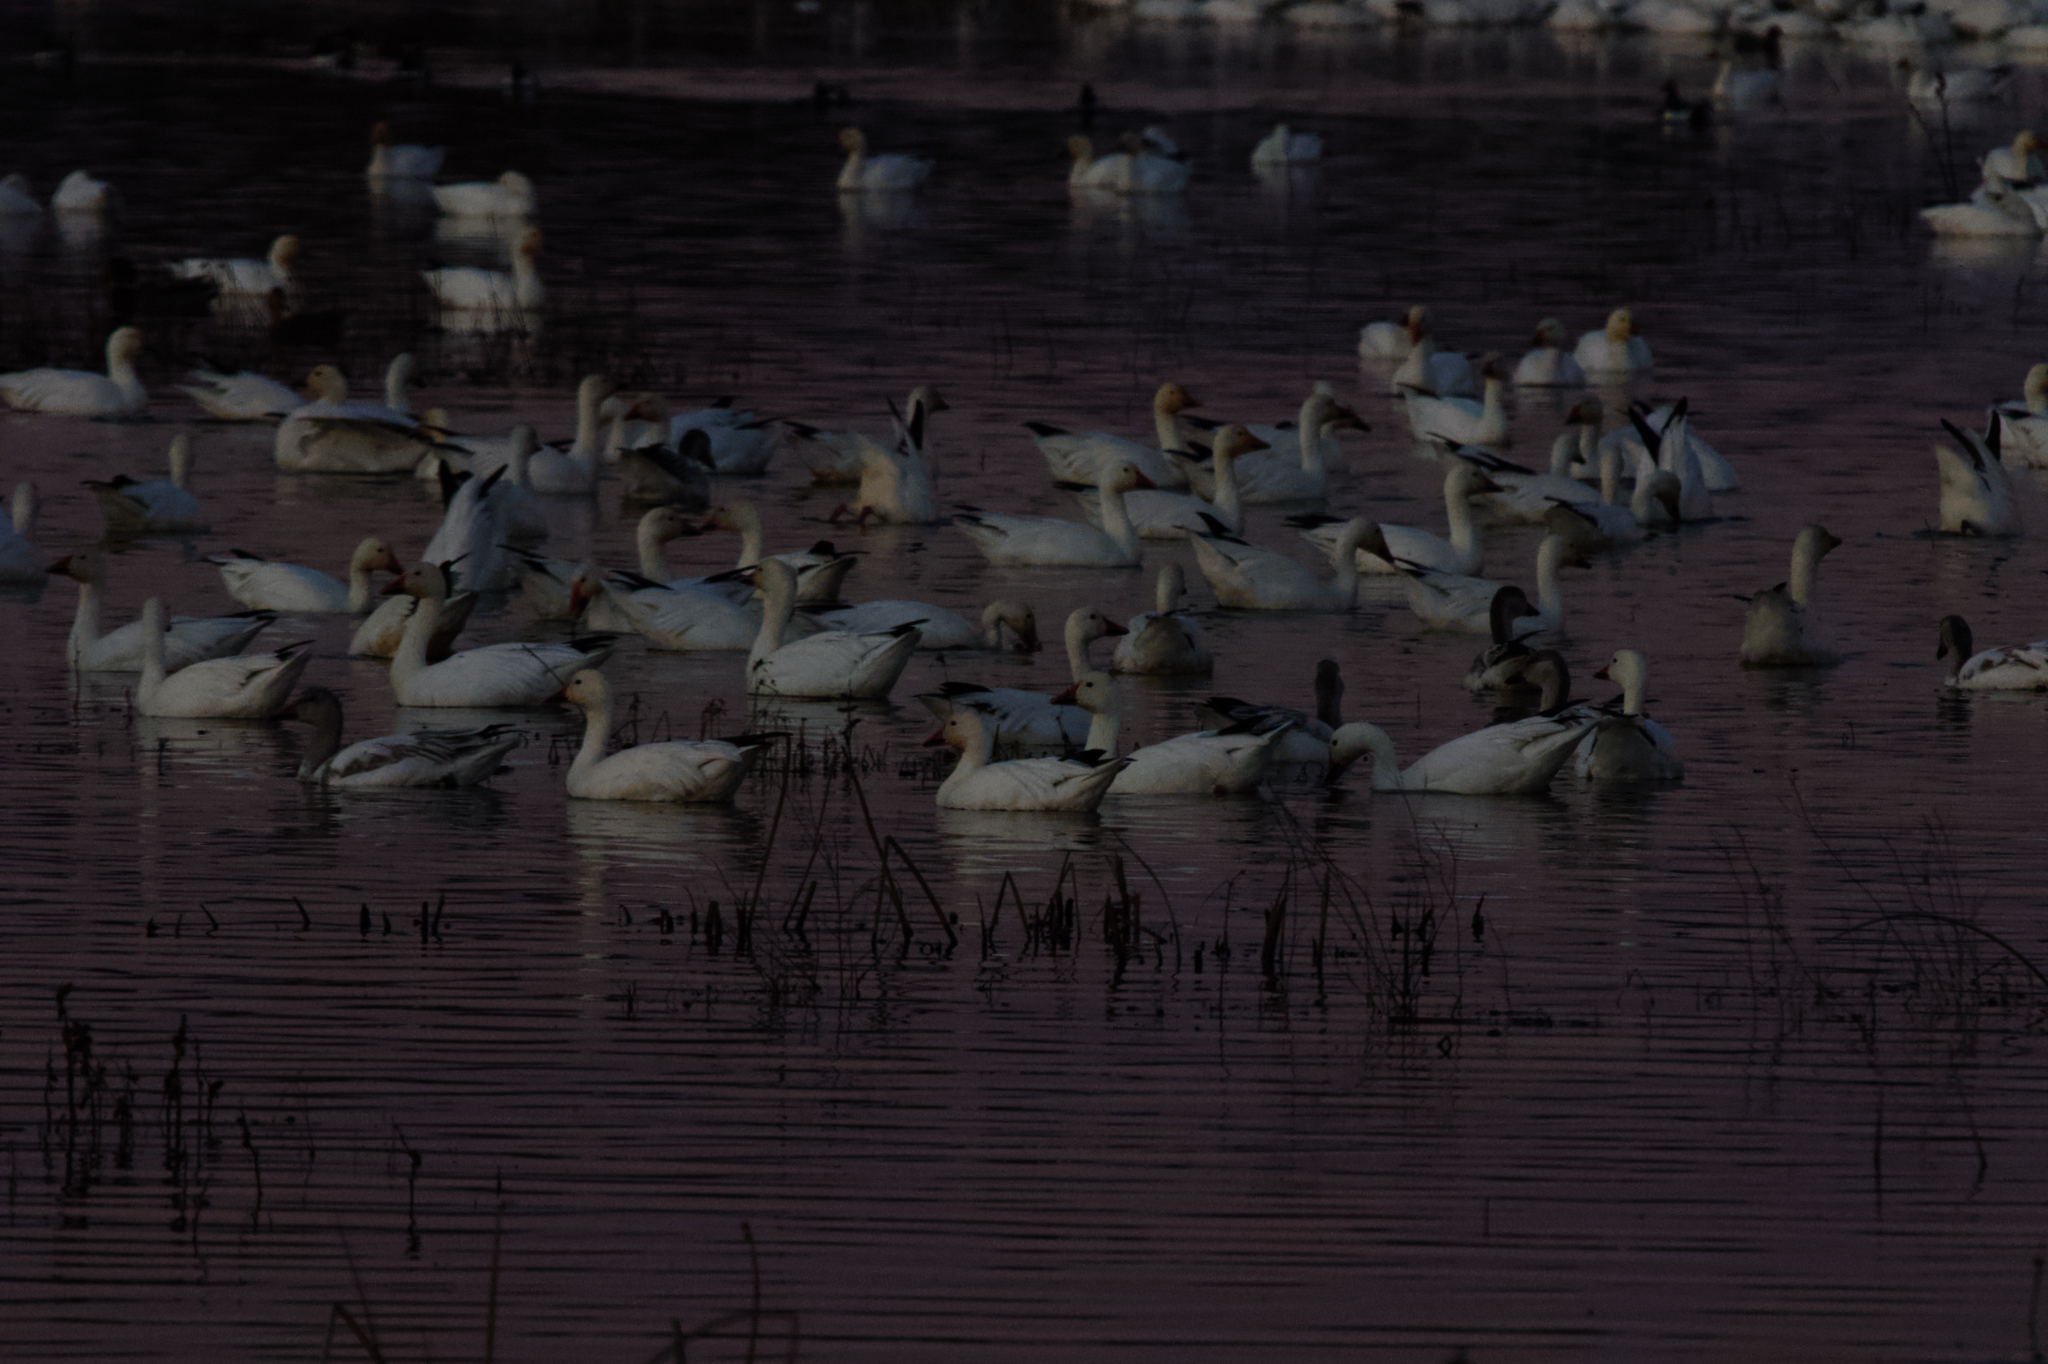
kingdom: Animalia
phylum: Chordata
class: Aves
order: Anseriformes
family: Anatidae
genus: Anser
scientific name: Anser caerulescens
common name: Snow goose
